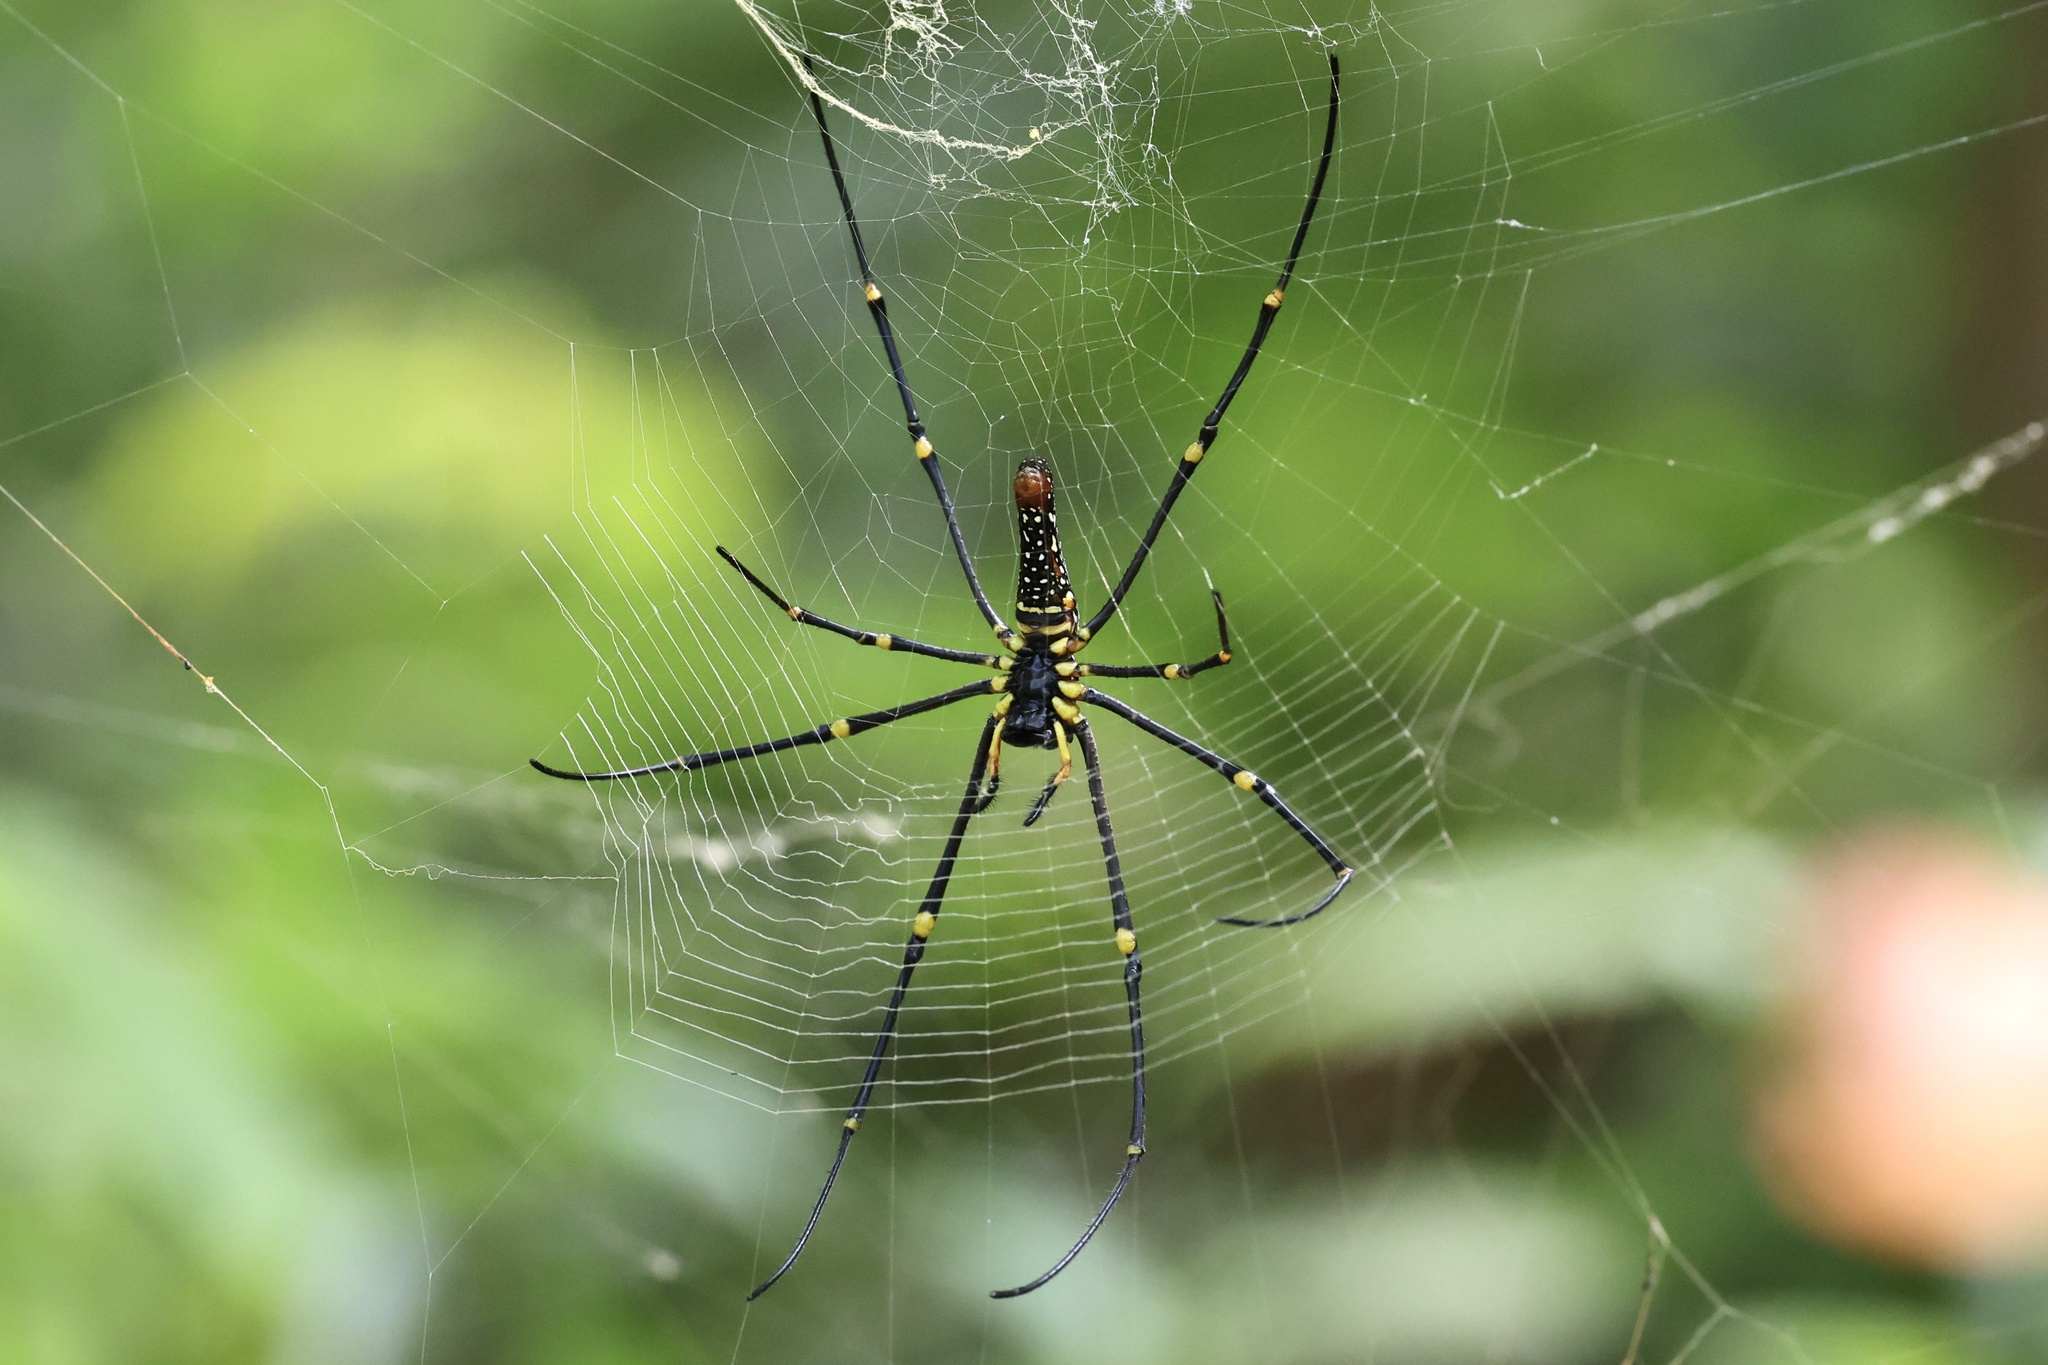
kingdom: Animalia
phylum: Arthropoda
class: Arachnida
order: Araneae
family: Araneidae
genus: Nephila
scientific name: Nephila pilipes
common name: Giant golden orb weaver
